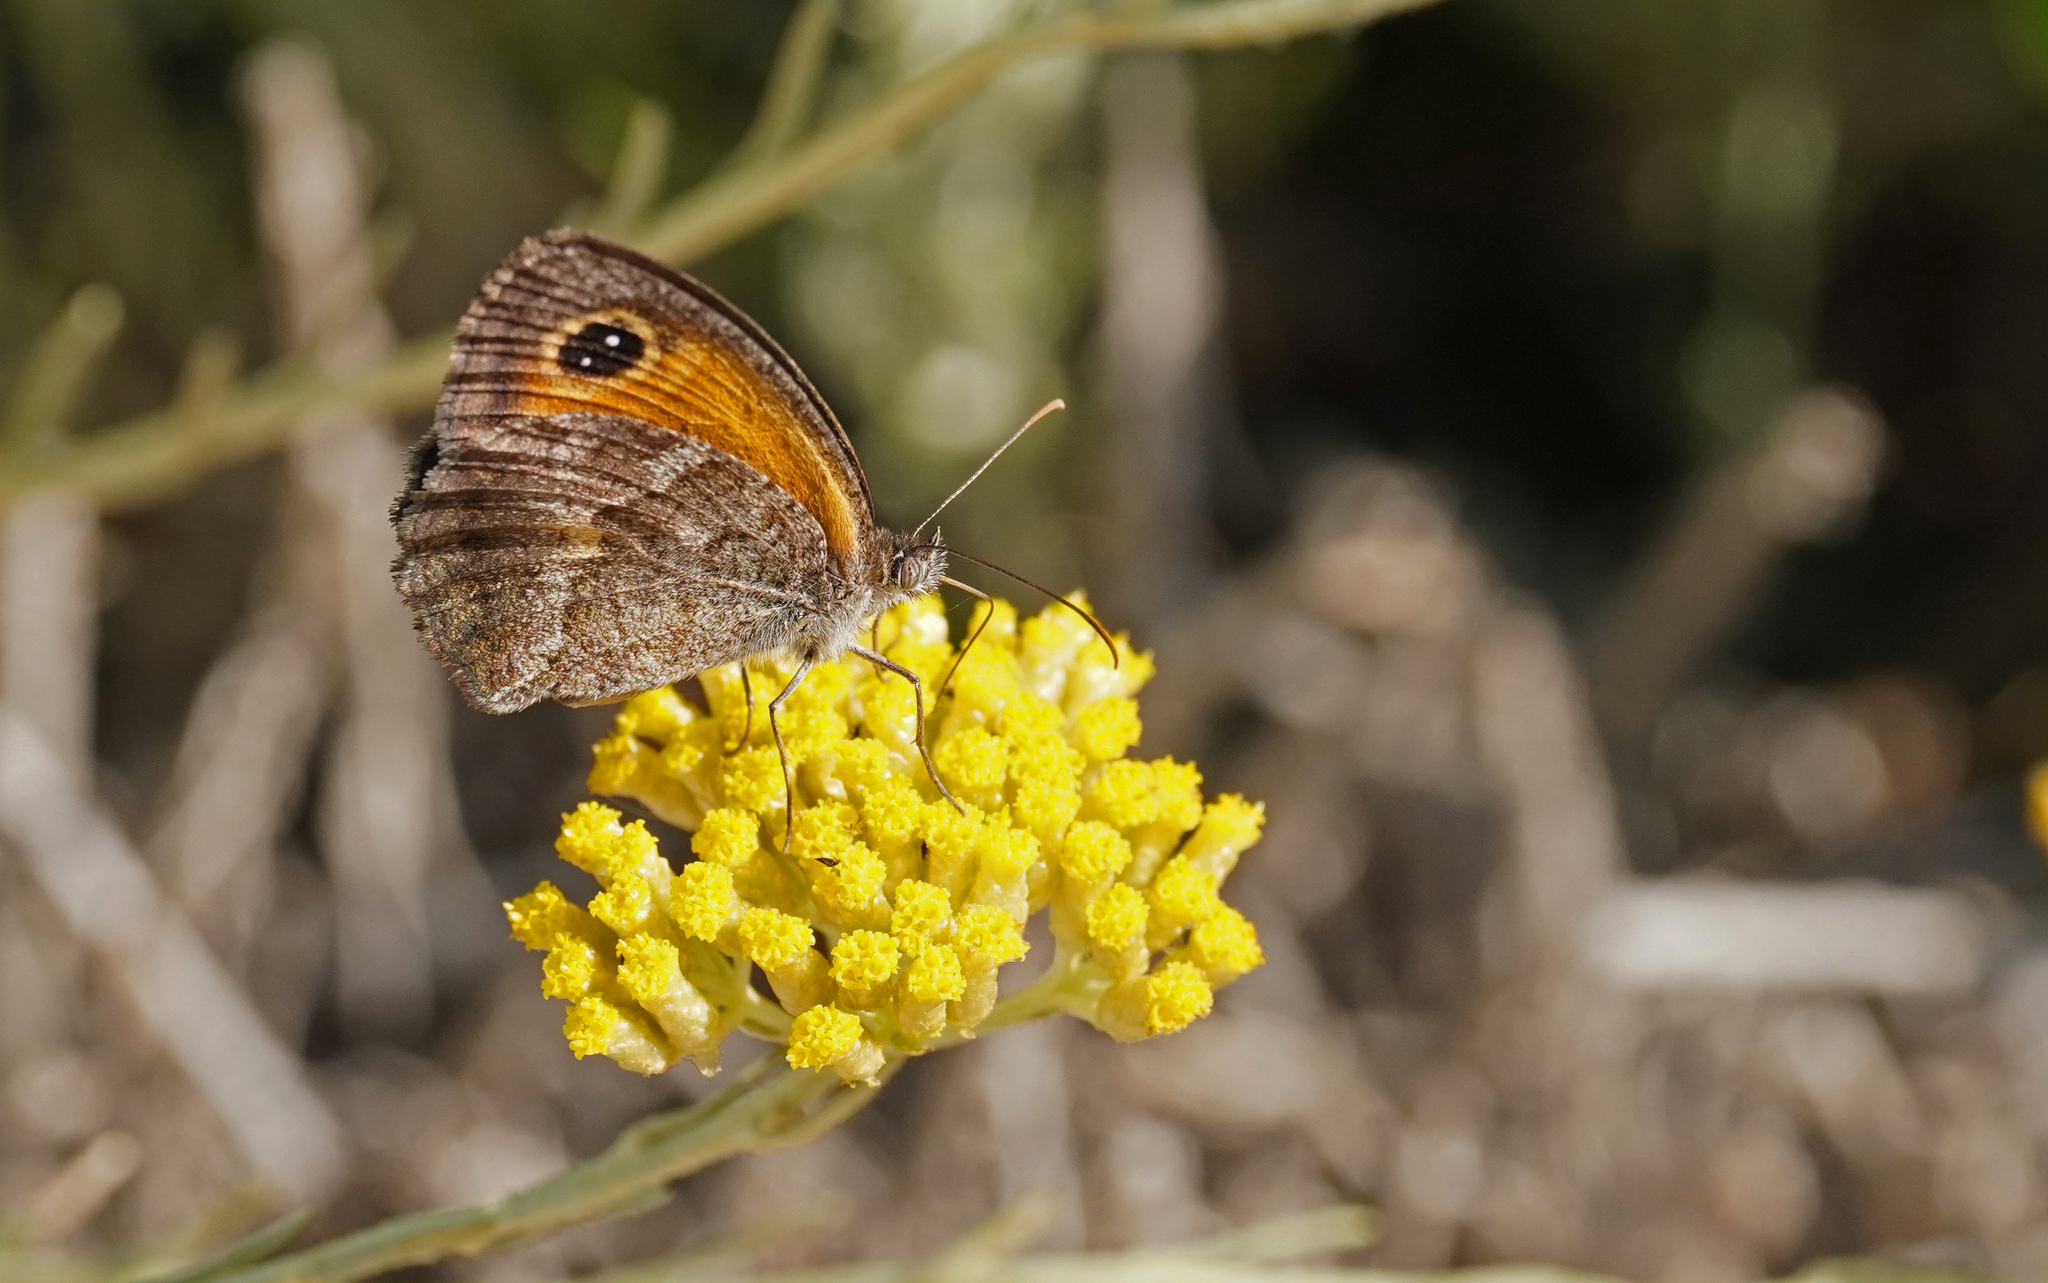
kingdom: Animalia
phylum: Arthropoda
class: Insecta
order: Lepidoptera
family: Nymphalidae
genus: Pyronia
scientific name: Pyronia cecilia
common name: Southern gatekeeper
